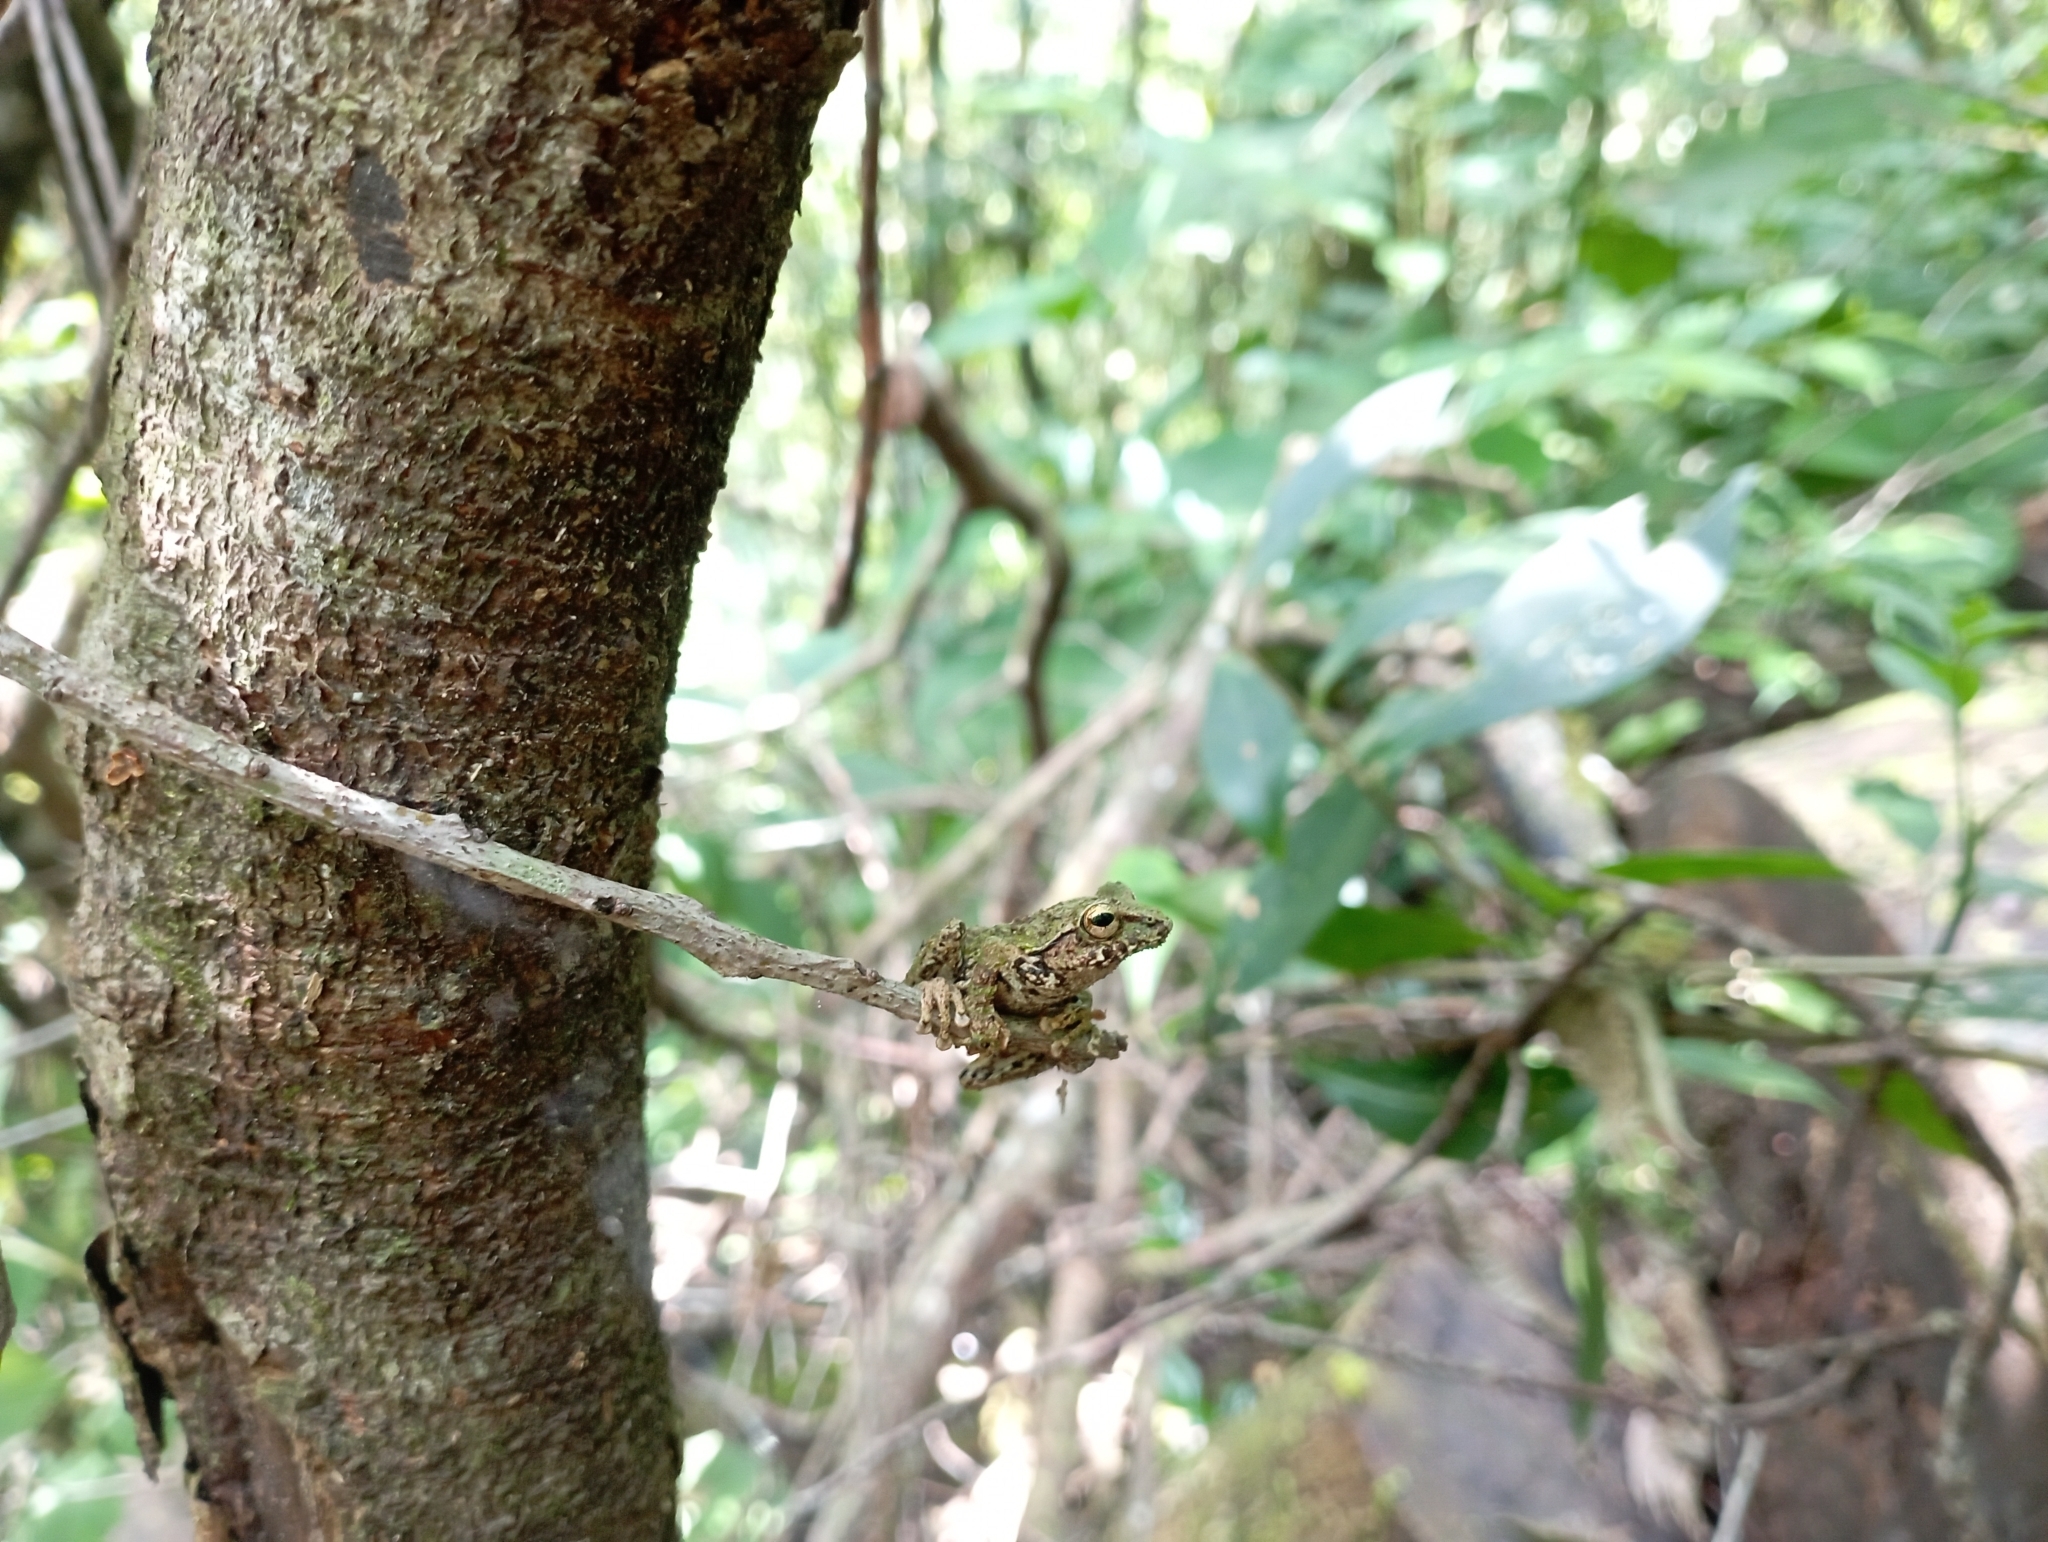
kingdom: Animalia
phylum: Chordata
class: Amphibia
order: Anura
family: Rhacophoridae
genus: Philautus
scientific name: Philautus aurifasciatus
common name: Java bubble-nest frog
